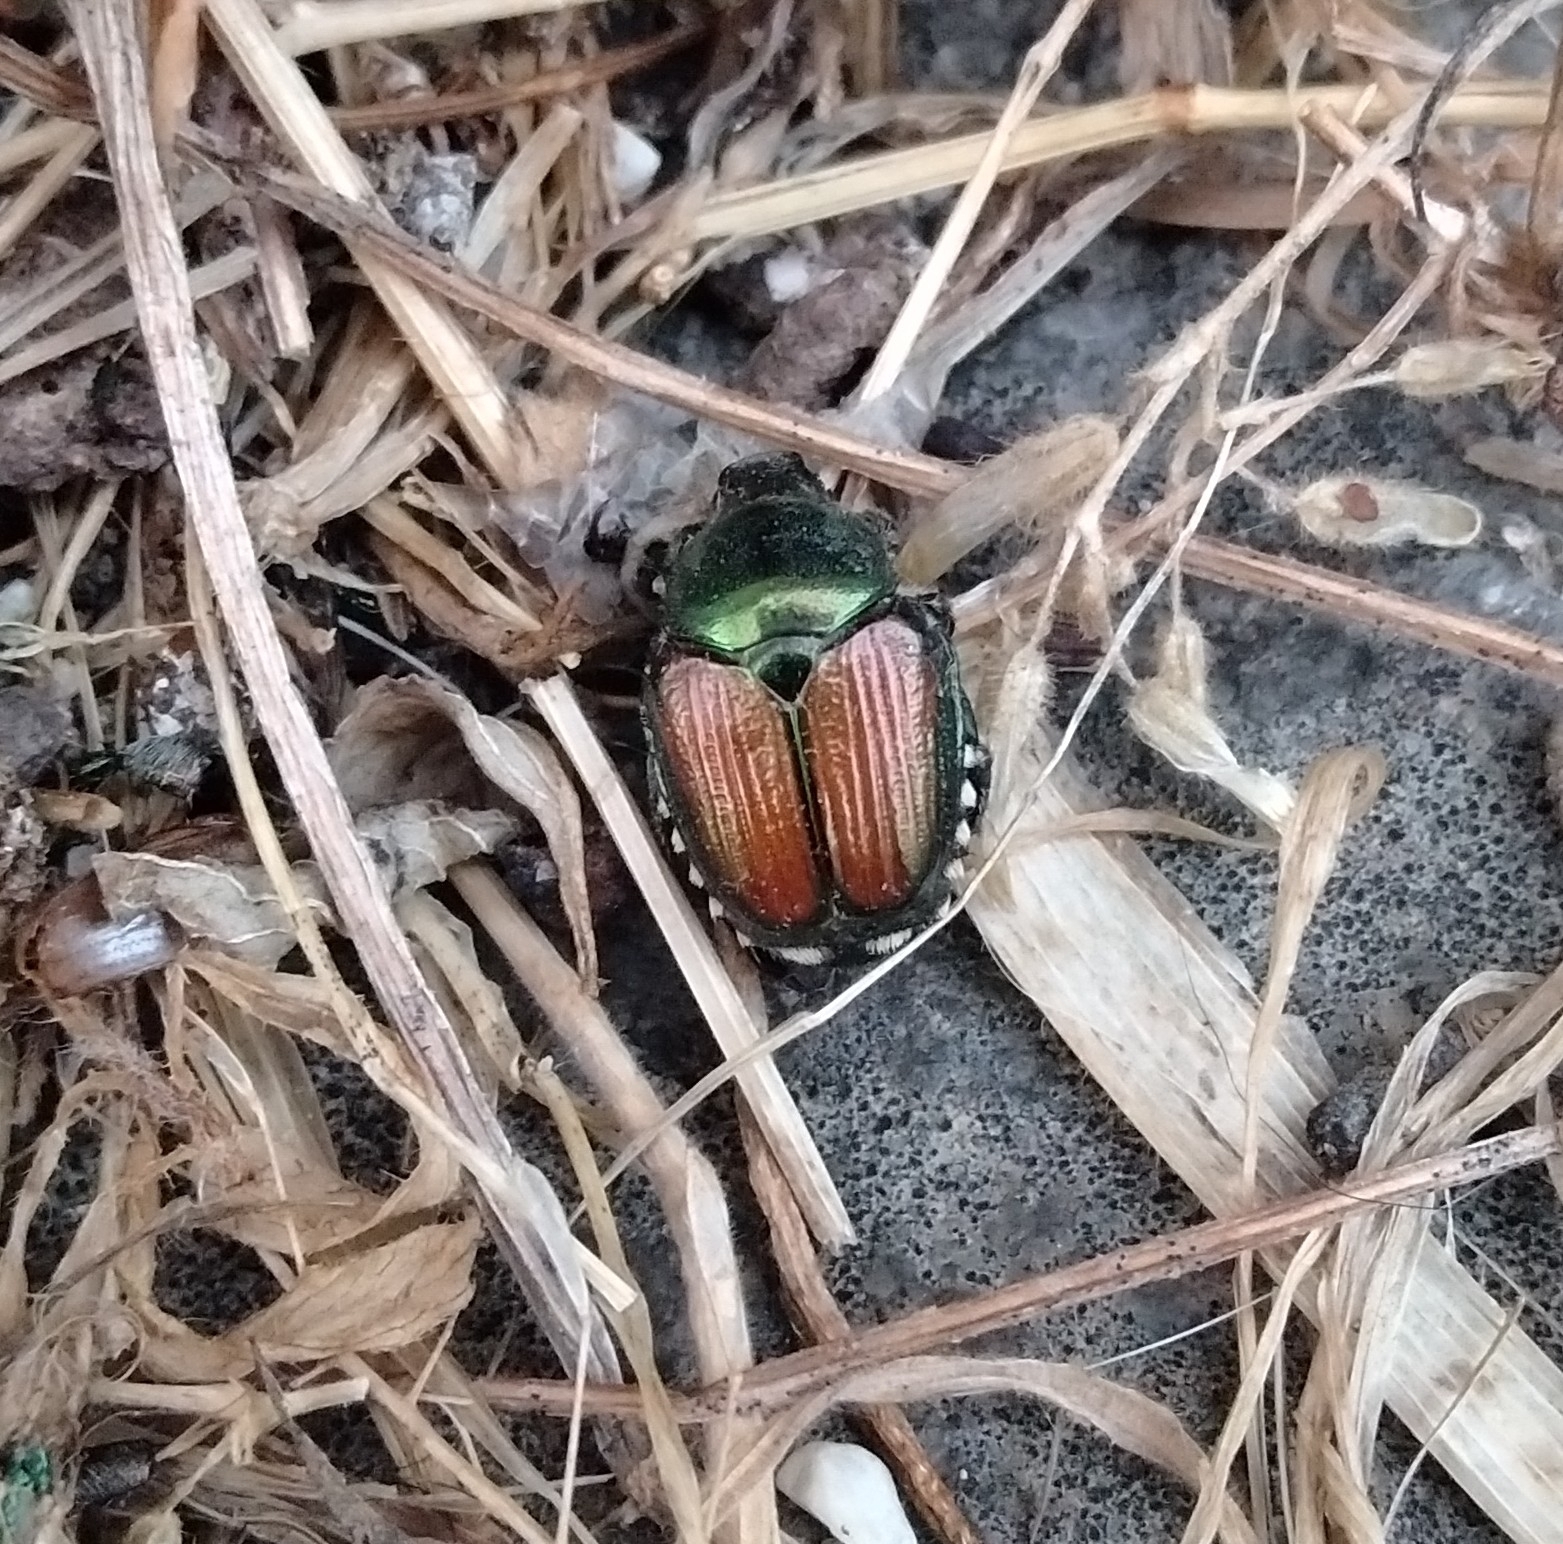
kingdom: Animalia
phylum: Arthropoda
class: Insecta
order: Coleoptera
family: Scarabaeidae
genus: Popillia
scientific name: Popillia japonica
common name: Japanese beetle
